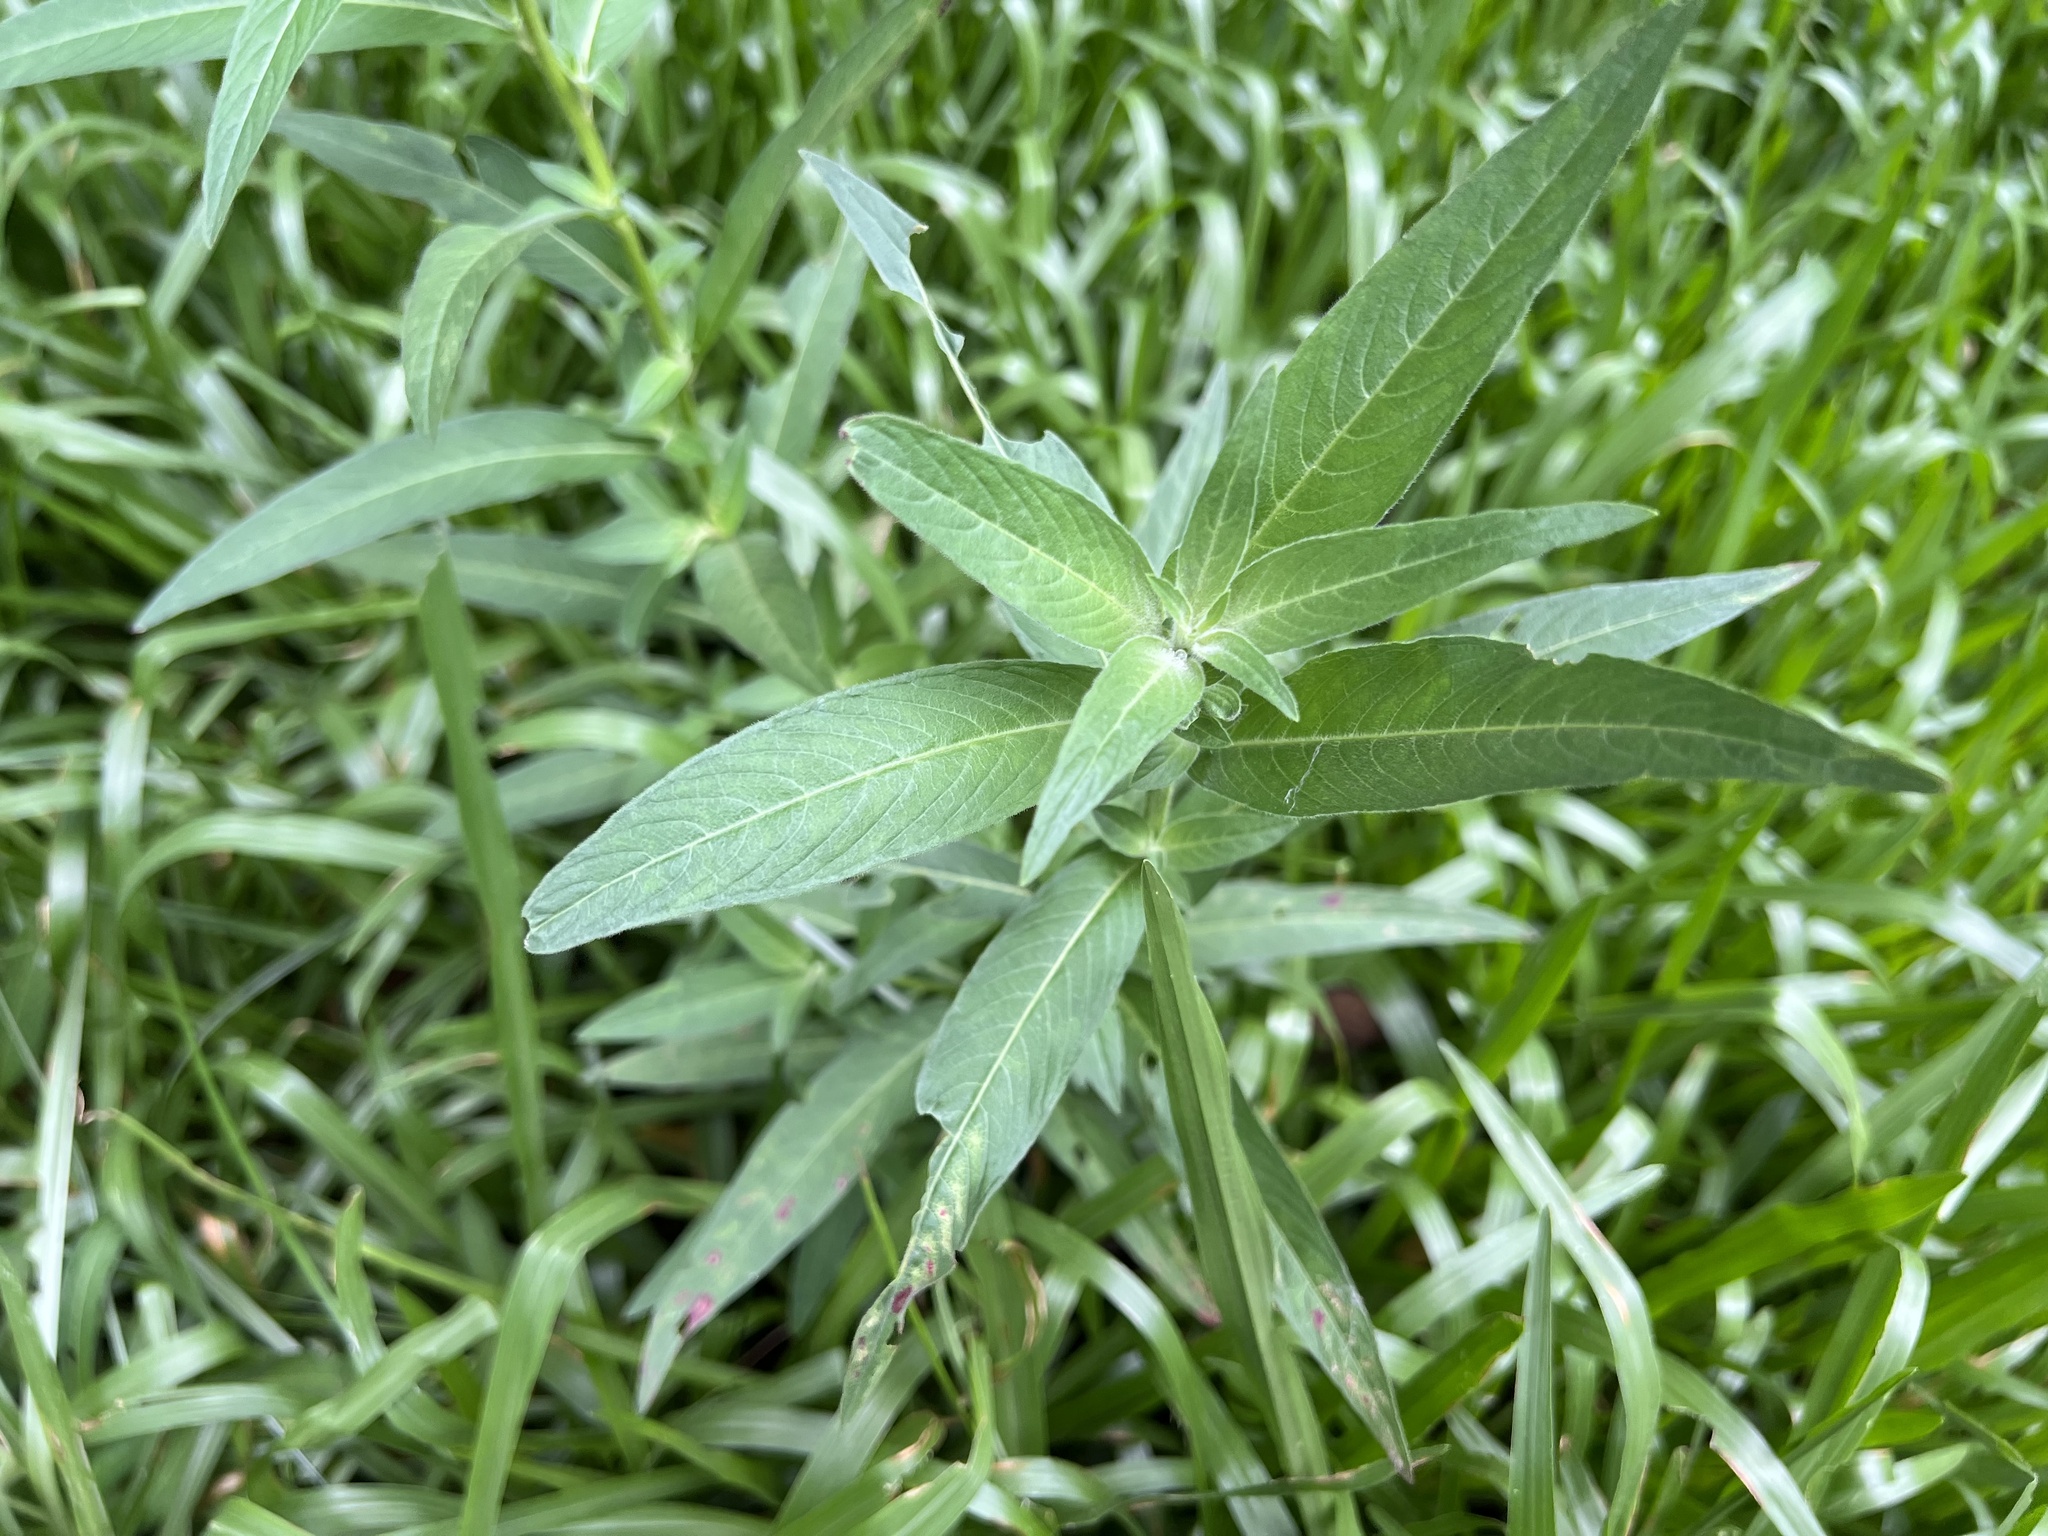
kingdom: Plantae
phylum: Tracheophyta
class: Magnoliopsida
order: Myrtales
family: Onagraceae
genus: Ludwigia
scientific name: Ludwigia octovalvis
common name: Water-primrose
